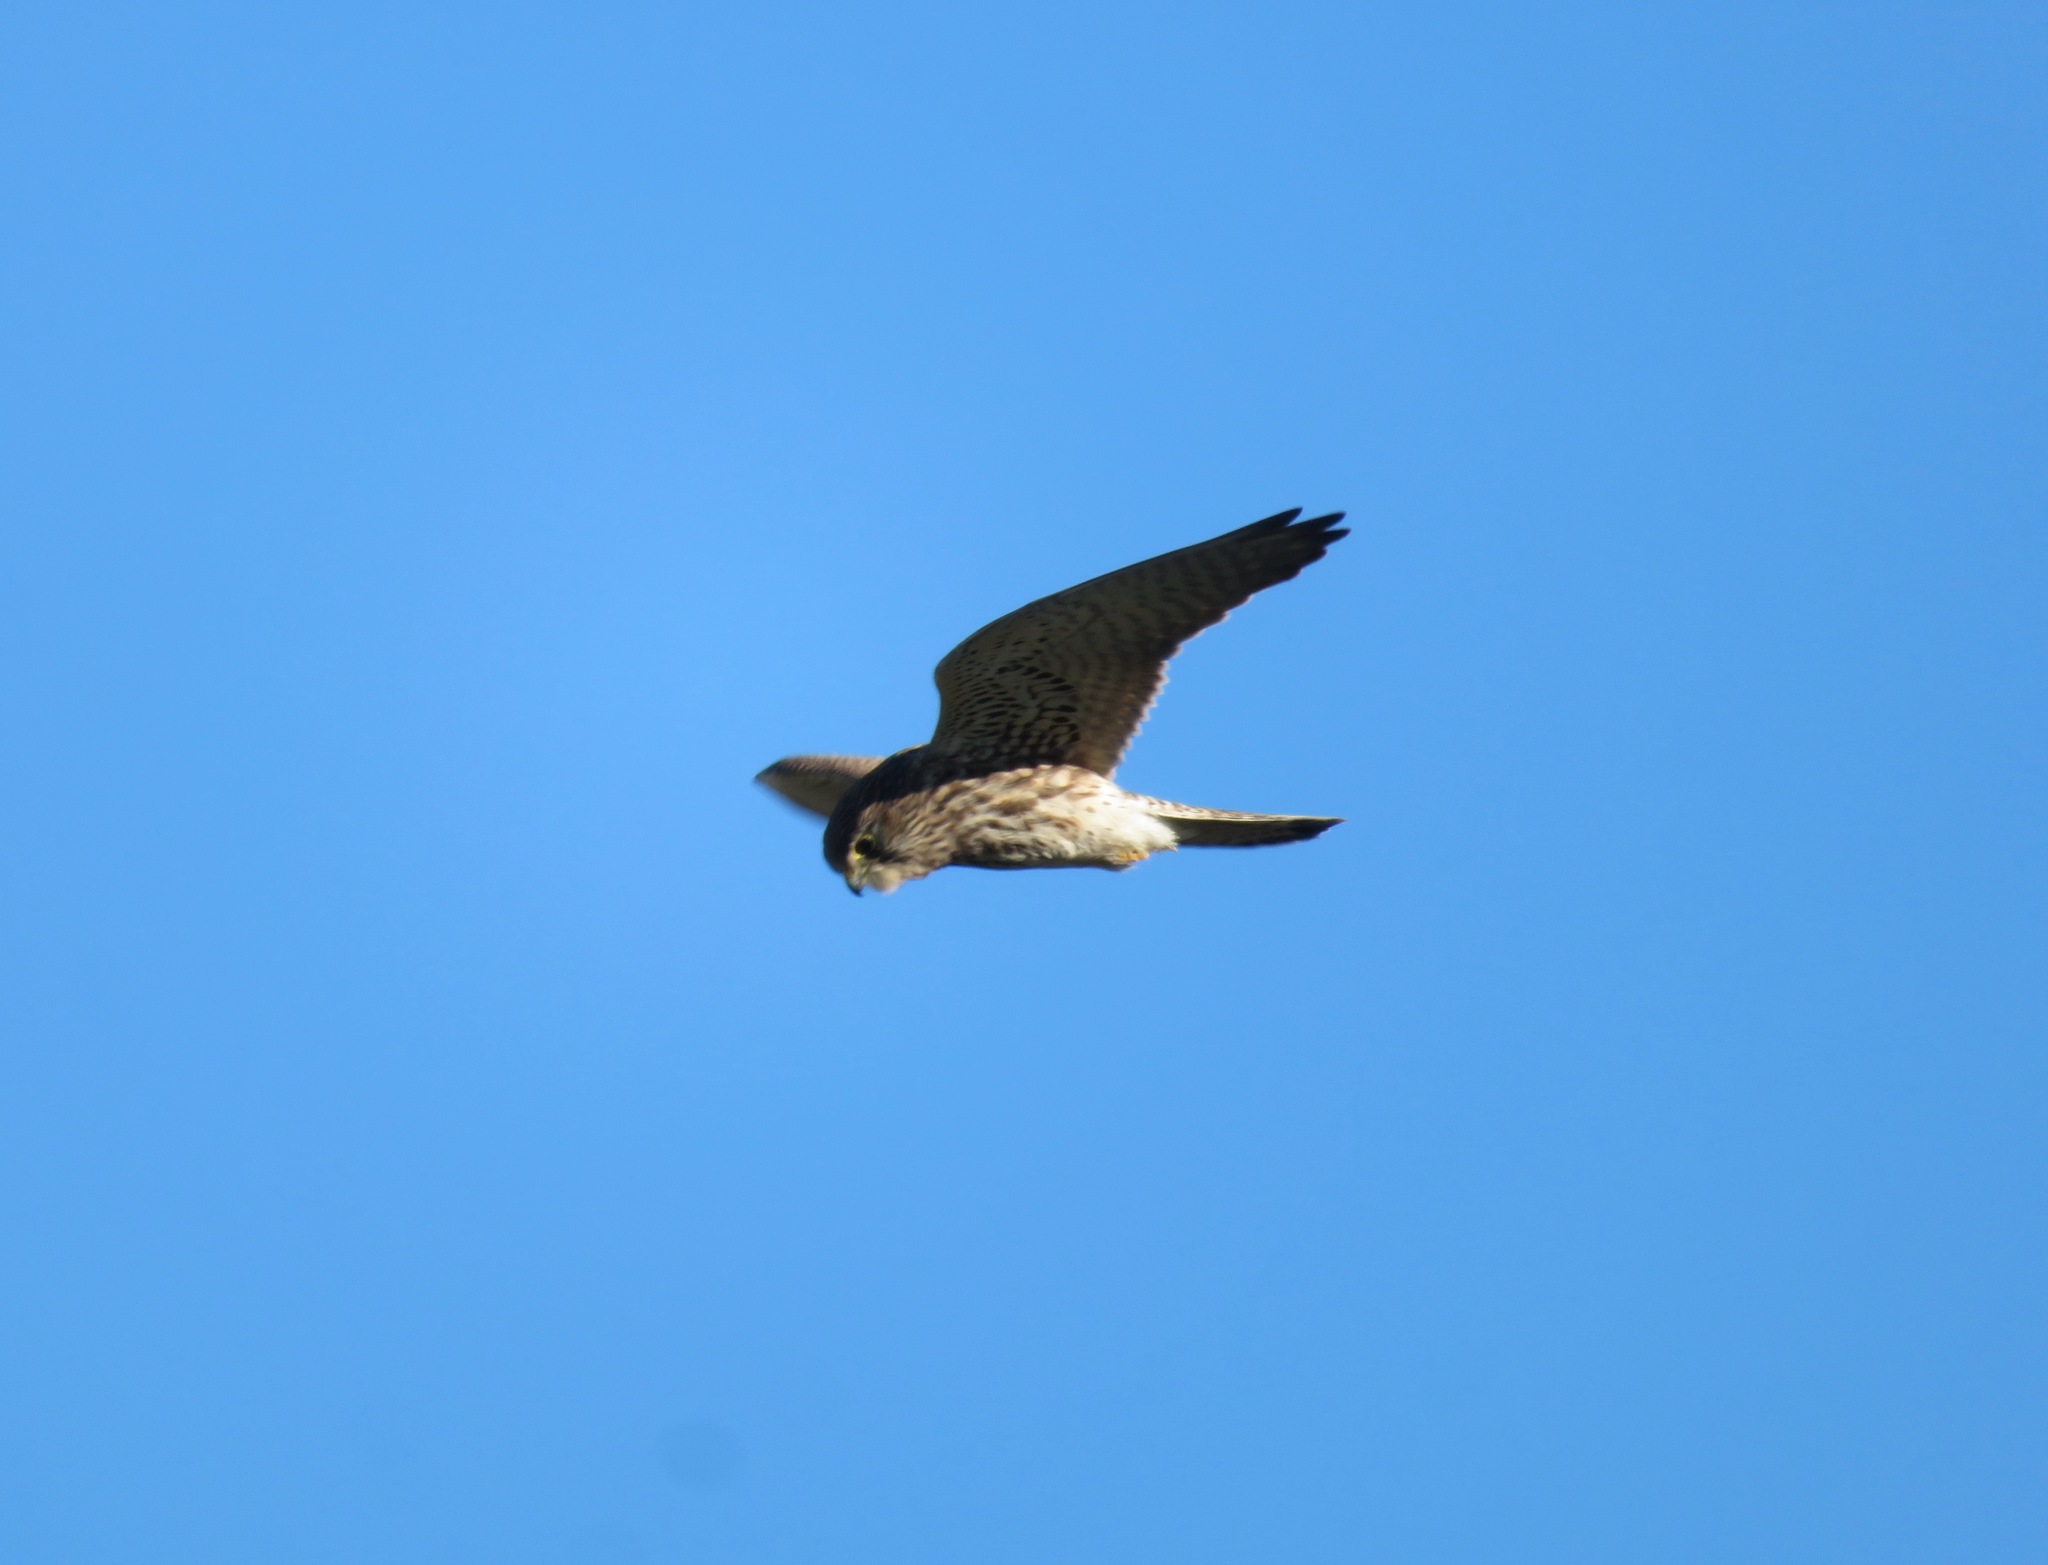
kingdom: Animalia
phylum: Chordata
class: Aves
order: Falconiformes
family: Falconidae
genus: Falco
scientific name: Falco tinnunculus
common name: Common kestrel
